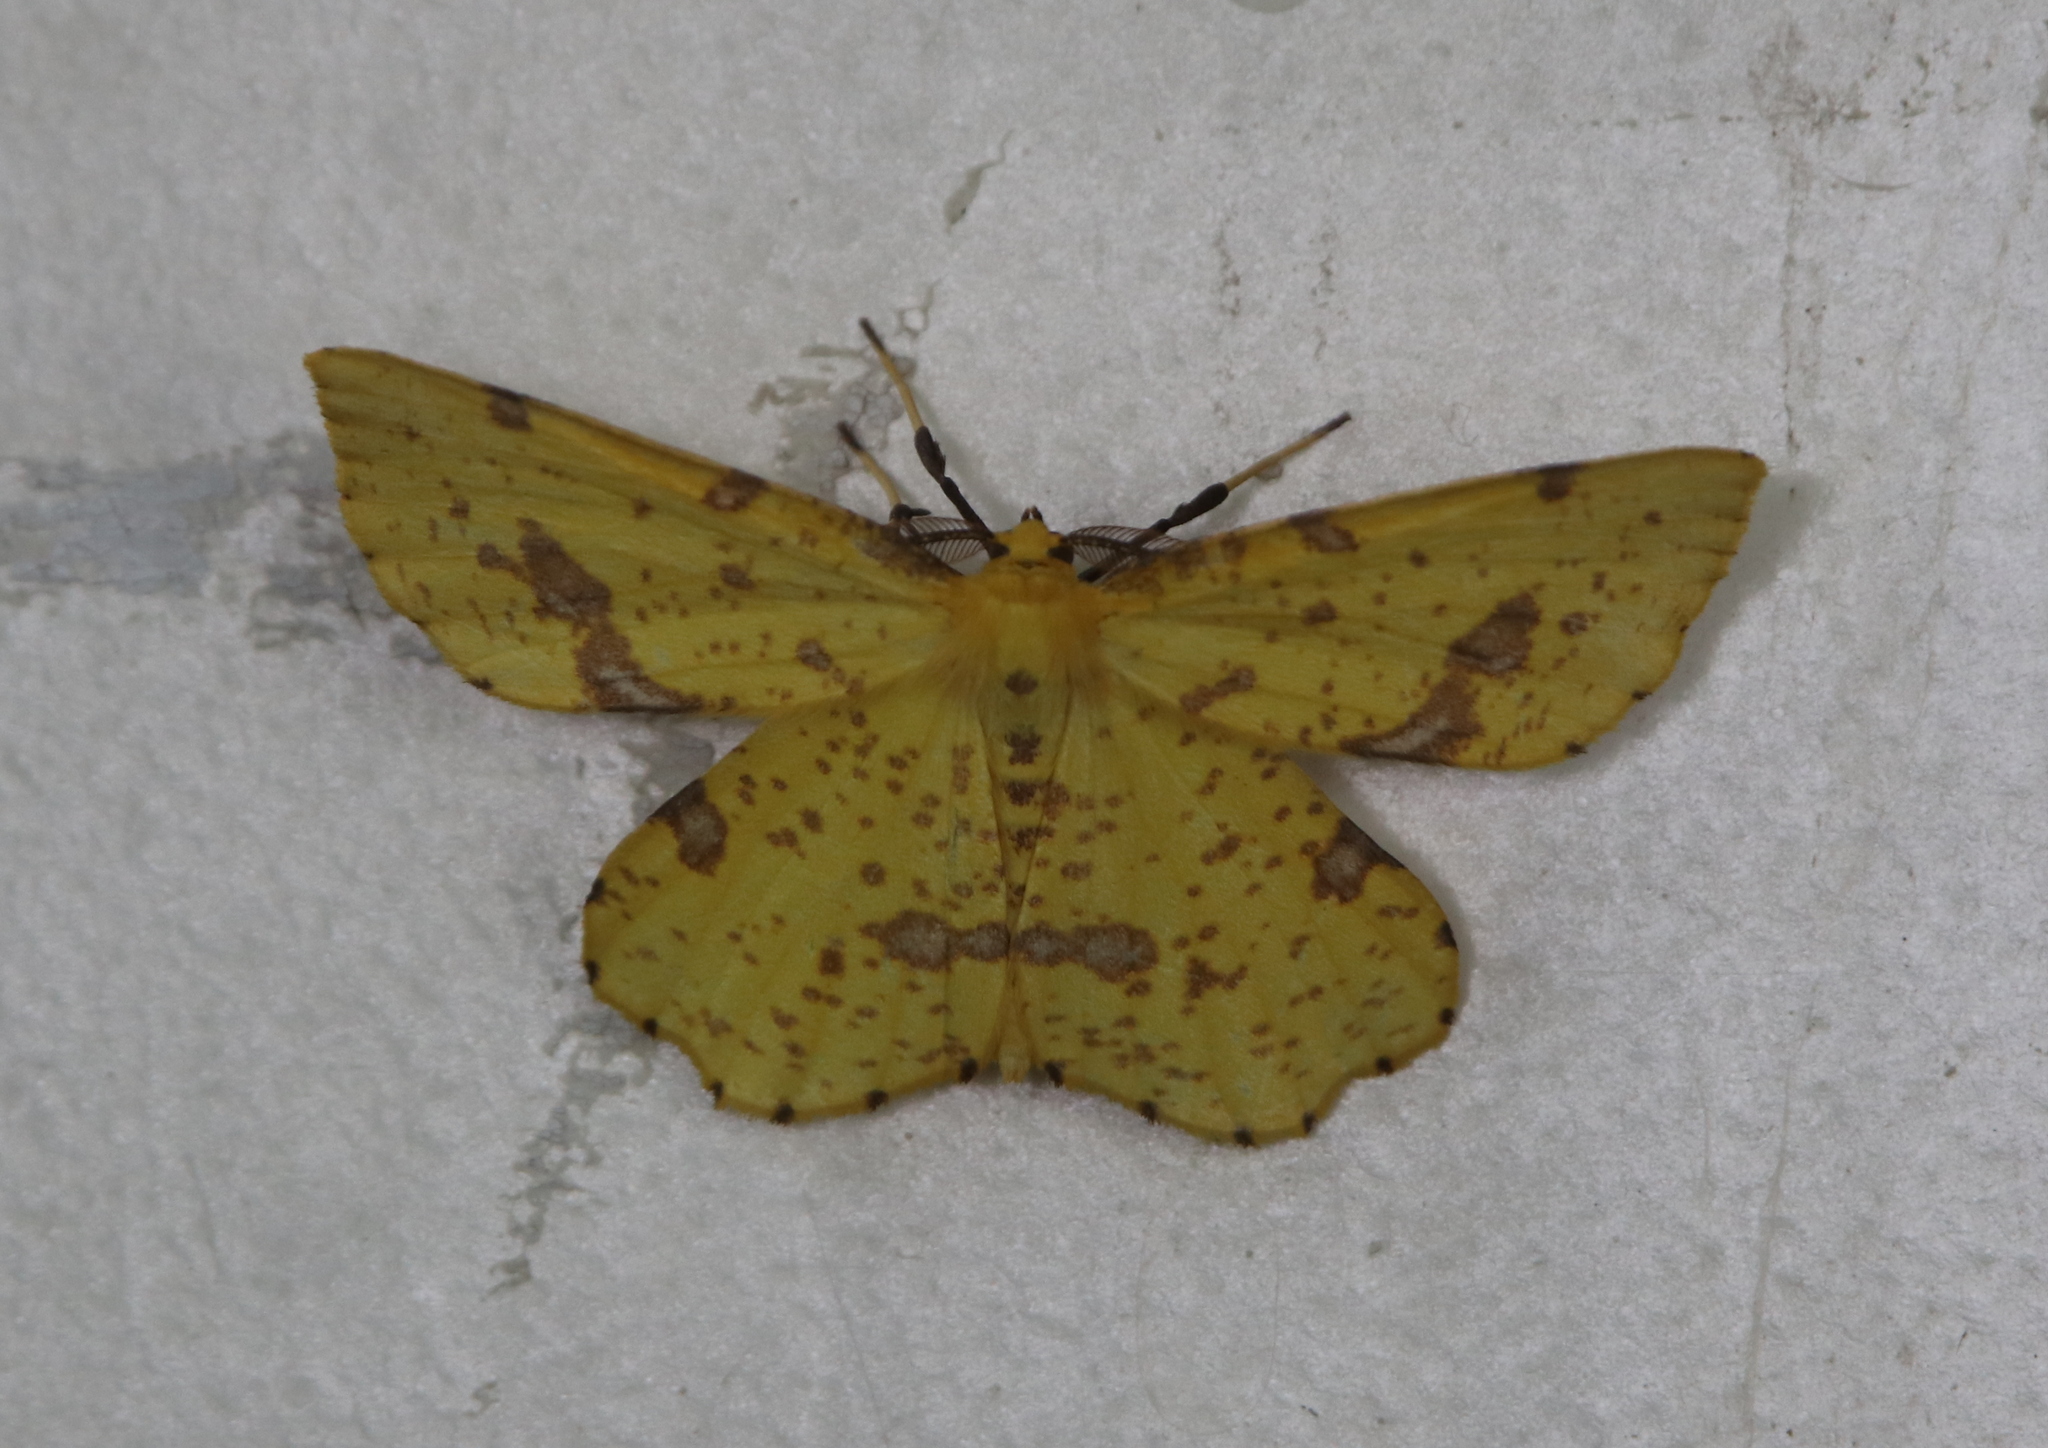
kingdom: Animalia
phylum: Arthropoda
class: Insecta
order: Lepidoptera
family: Geometridae
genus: Xanthotype
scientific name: Xanthotype
